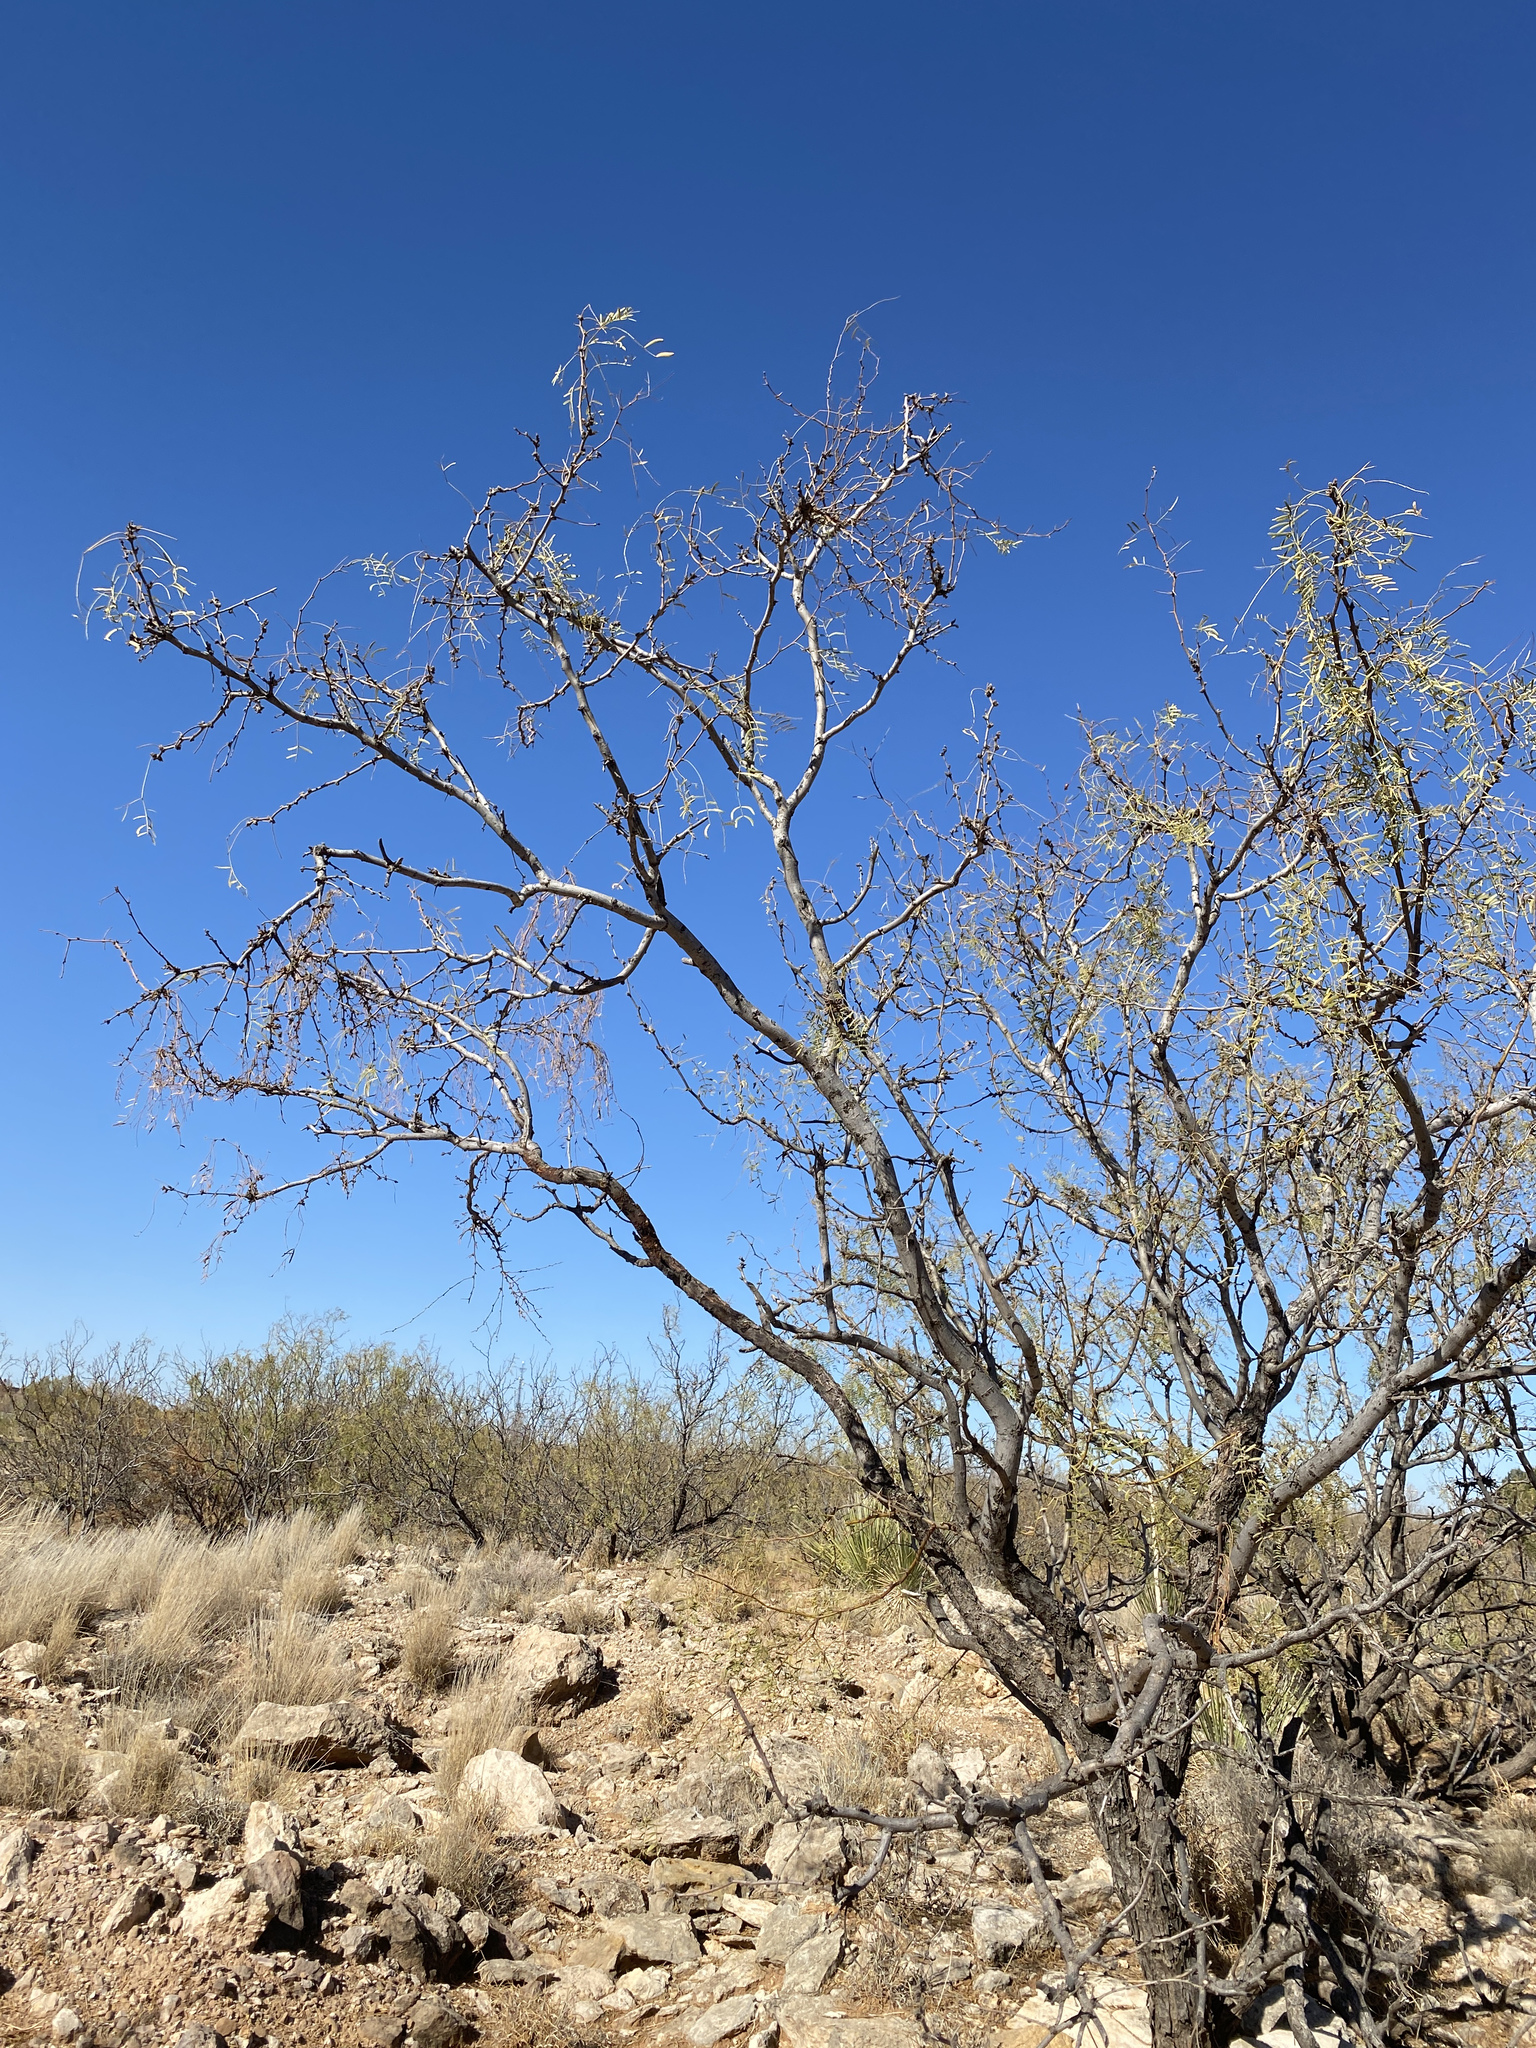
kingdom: Plantae
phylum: Tracheophyta
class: Magnoliopsida
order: Fabales
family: Fabaceae
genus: Prosopis
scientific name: Prosopis glandulosa
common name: Honey mesquite
